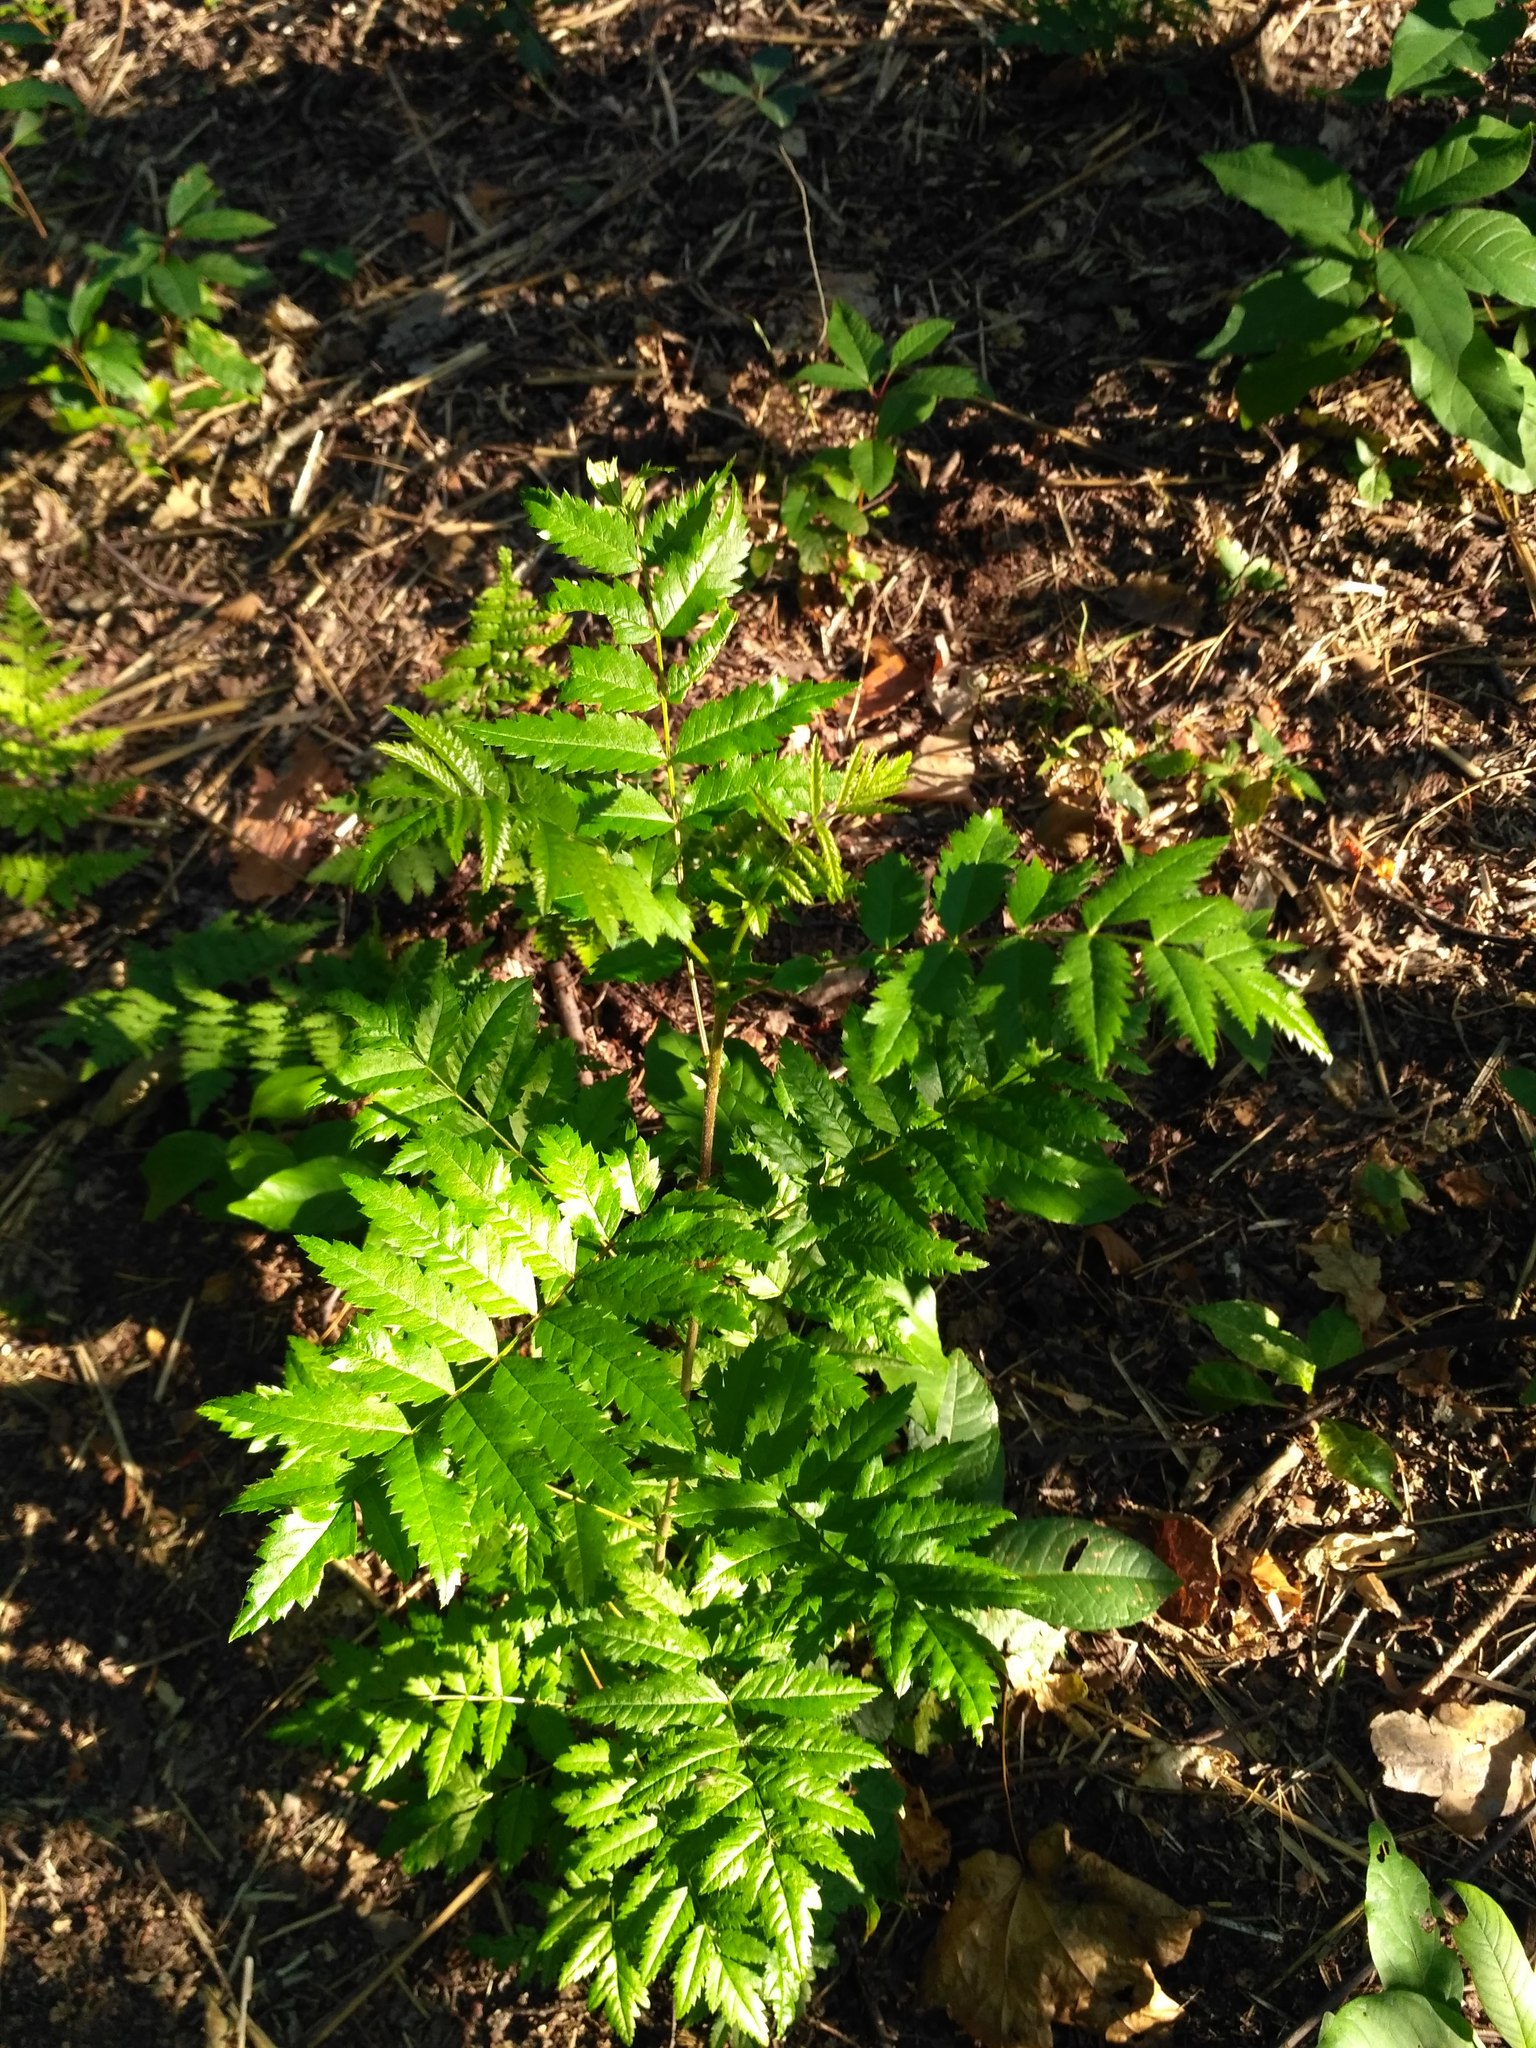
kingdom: Plantae
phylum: Tracheophyta
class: Magnoliopsida
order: Rosales
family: Rosaceae
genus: Sorbus
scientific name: Sorbus aucuparia
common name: Rowan
